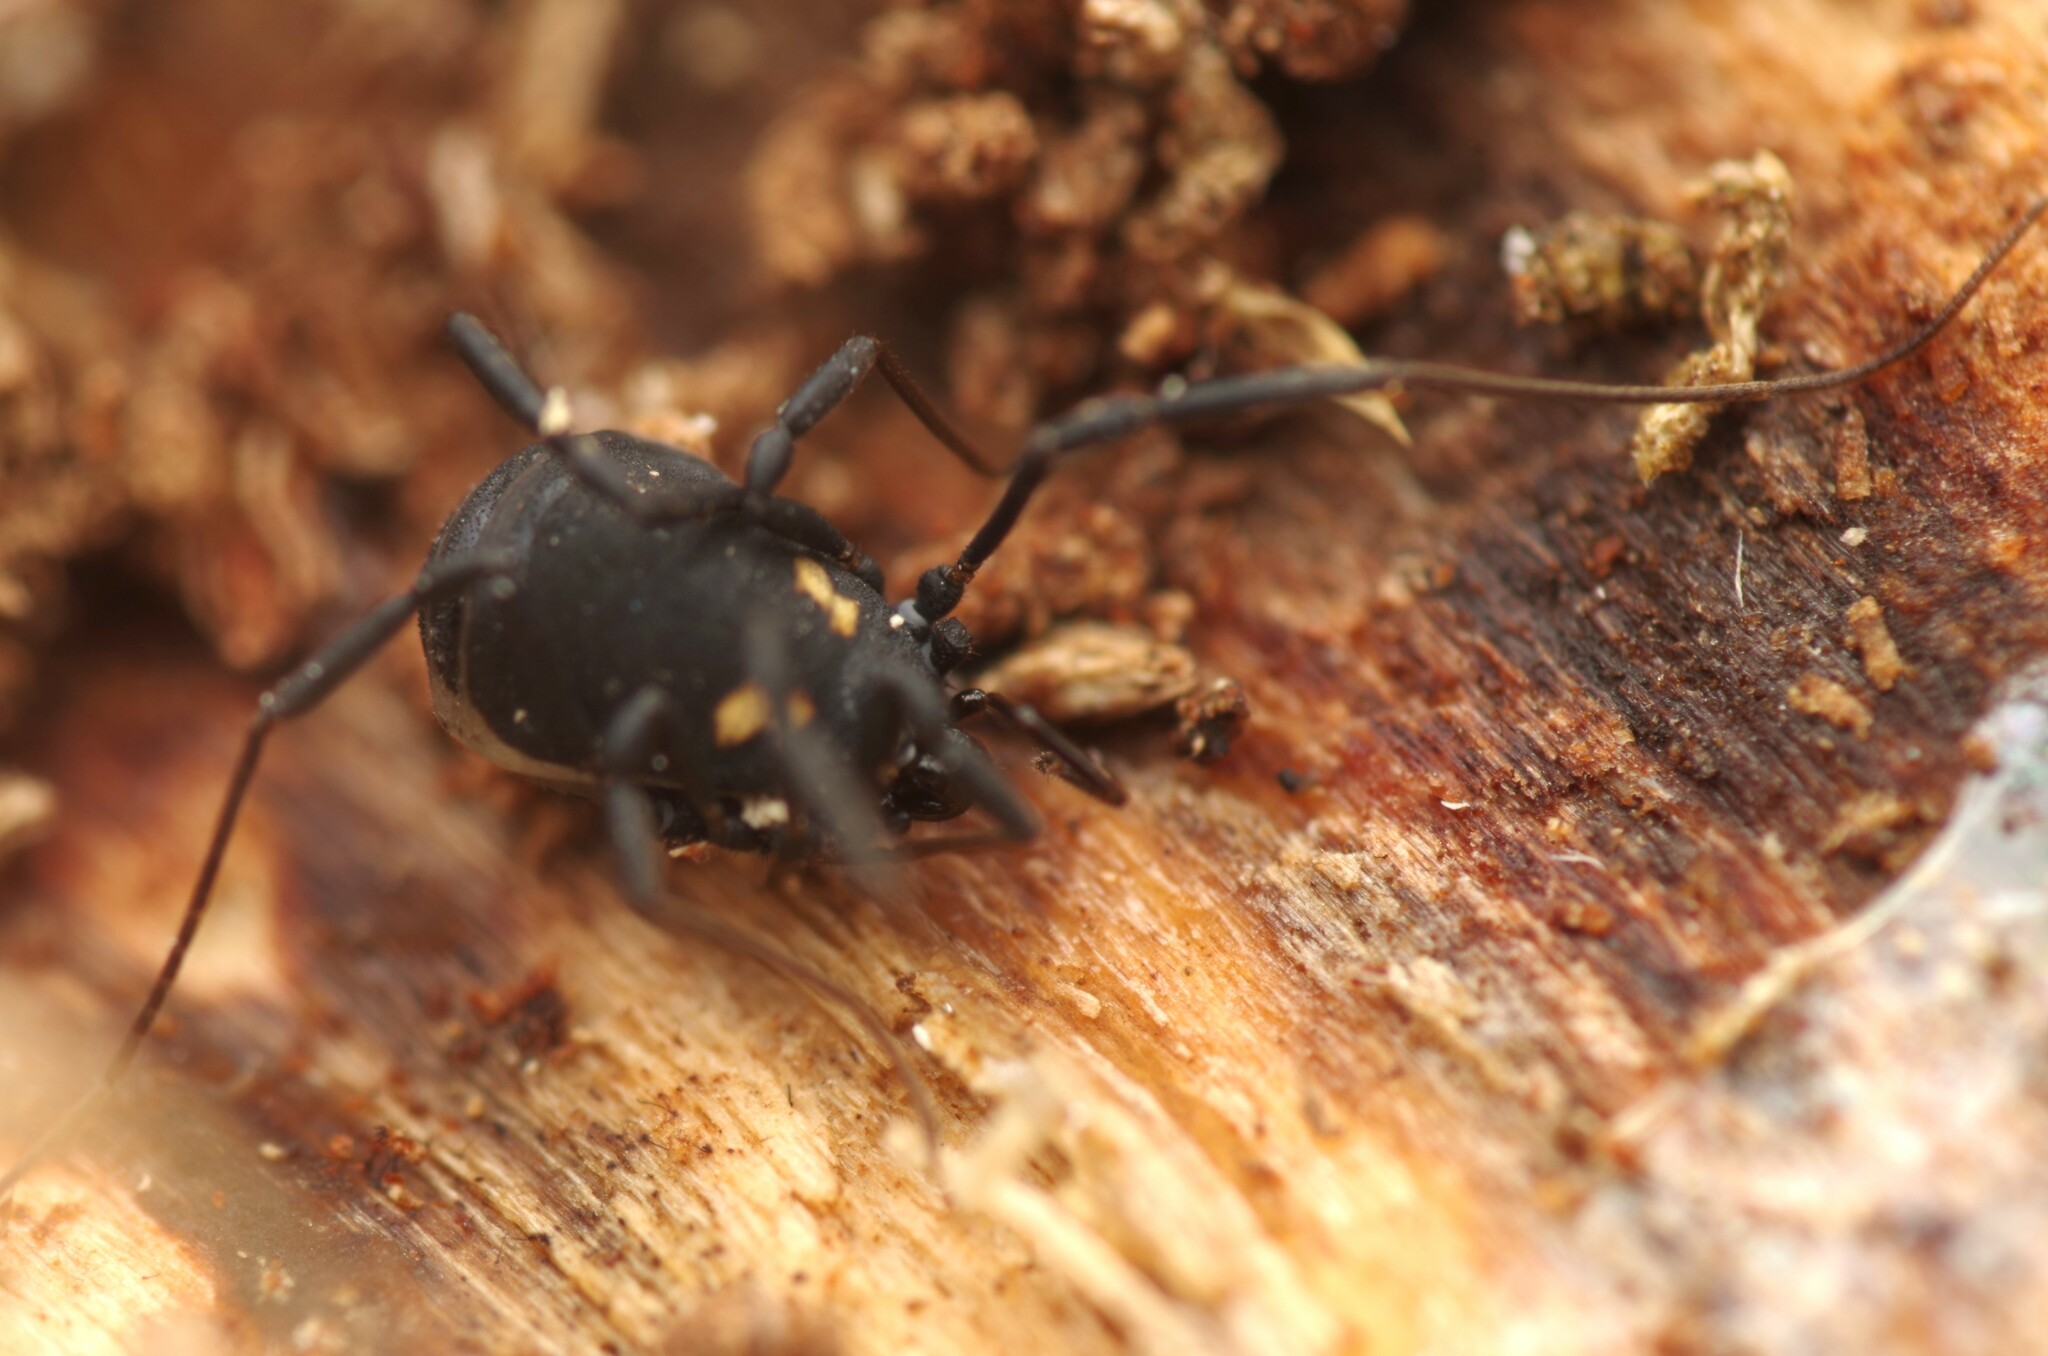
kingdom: Animalia
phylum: Arthropoda
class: Arachnida
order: Opiliones
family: Nemastomatidae
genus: Nemastoma
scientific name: Nemastoma bimaculatum
